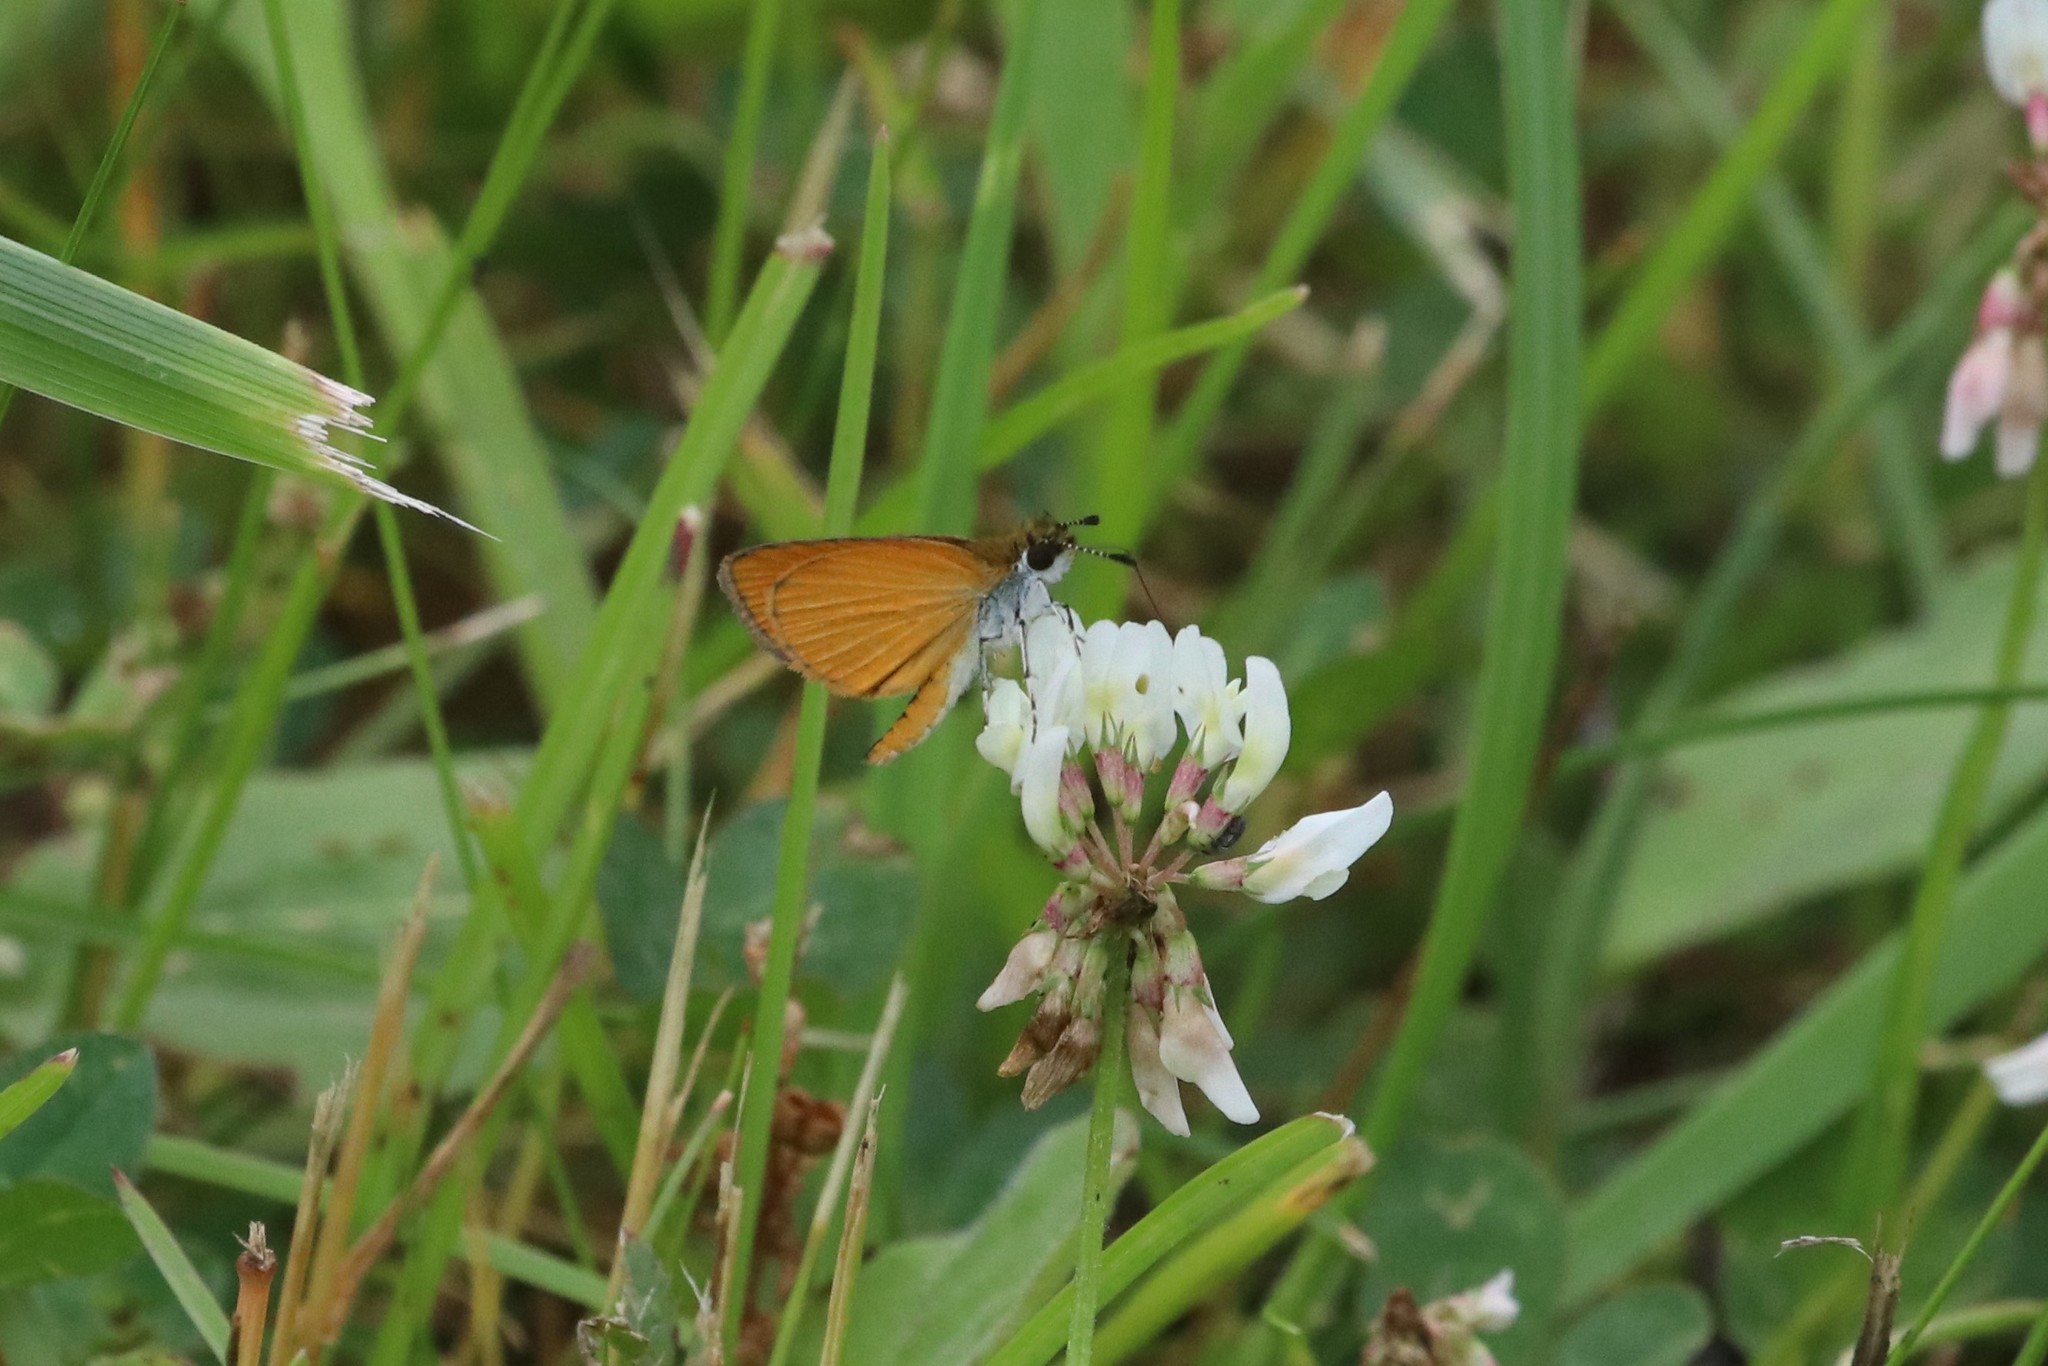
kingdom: Animalia
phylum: Arthropoda
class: Insecta
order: Lepidoptera
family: Hesperiidae
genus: Ancyloxypha
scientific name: Ancyloxypha numitor
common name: Least skipper
